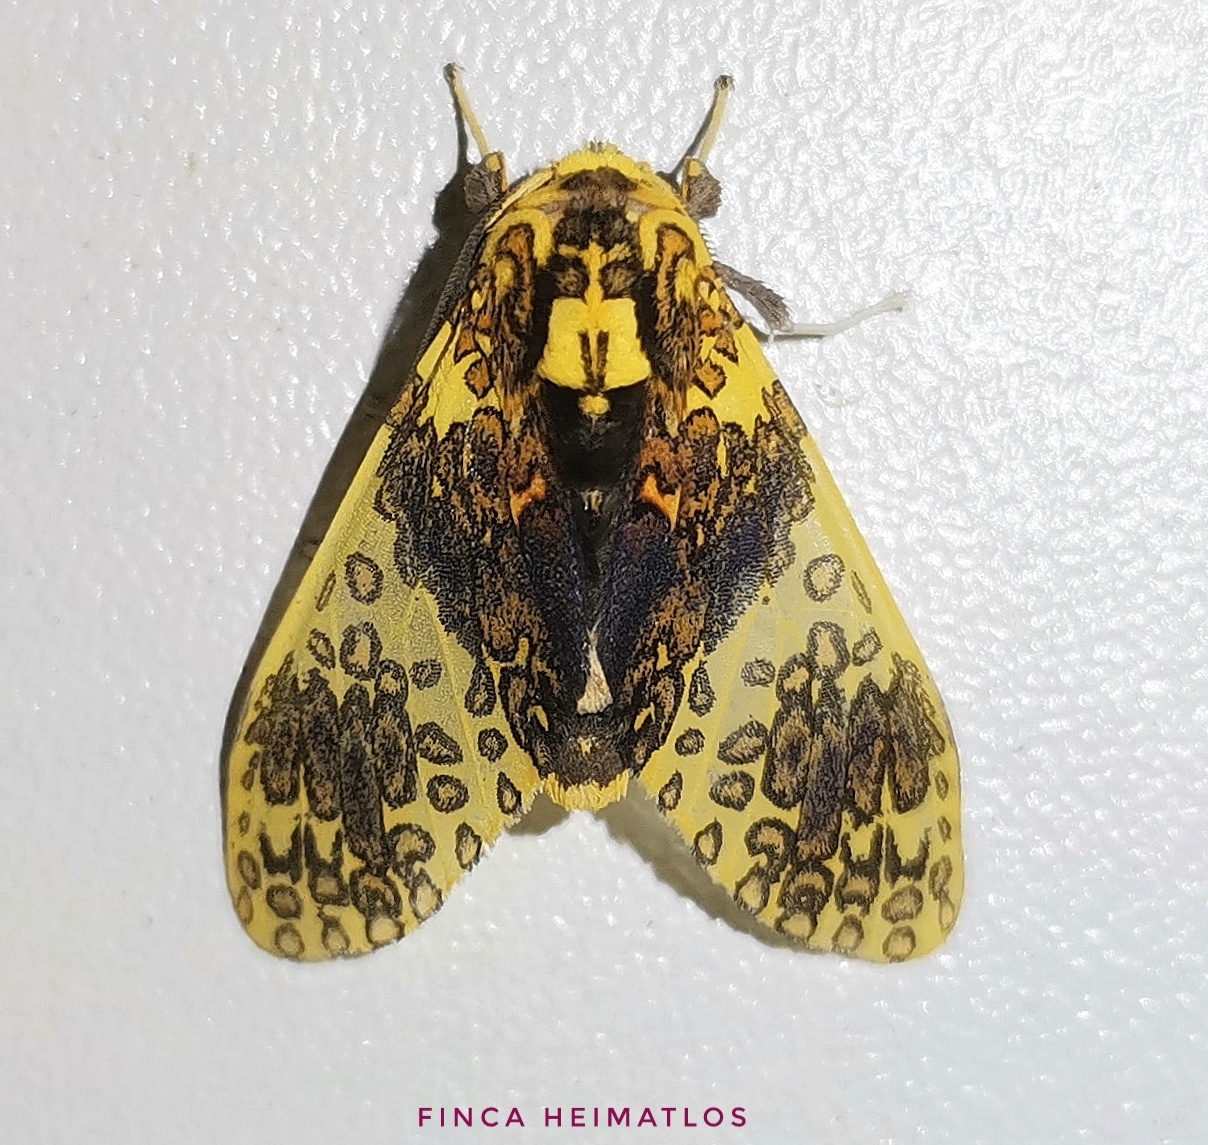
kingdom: Animalia
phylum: Arthropoda
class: Insecta
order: Lepidoptera
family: Erebidae
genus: Amaxia
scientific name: Amaxia violacea
